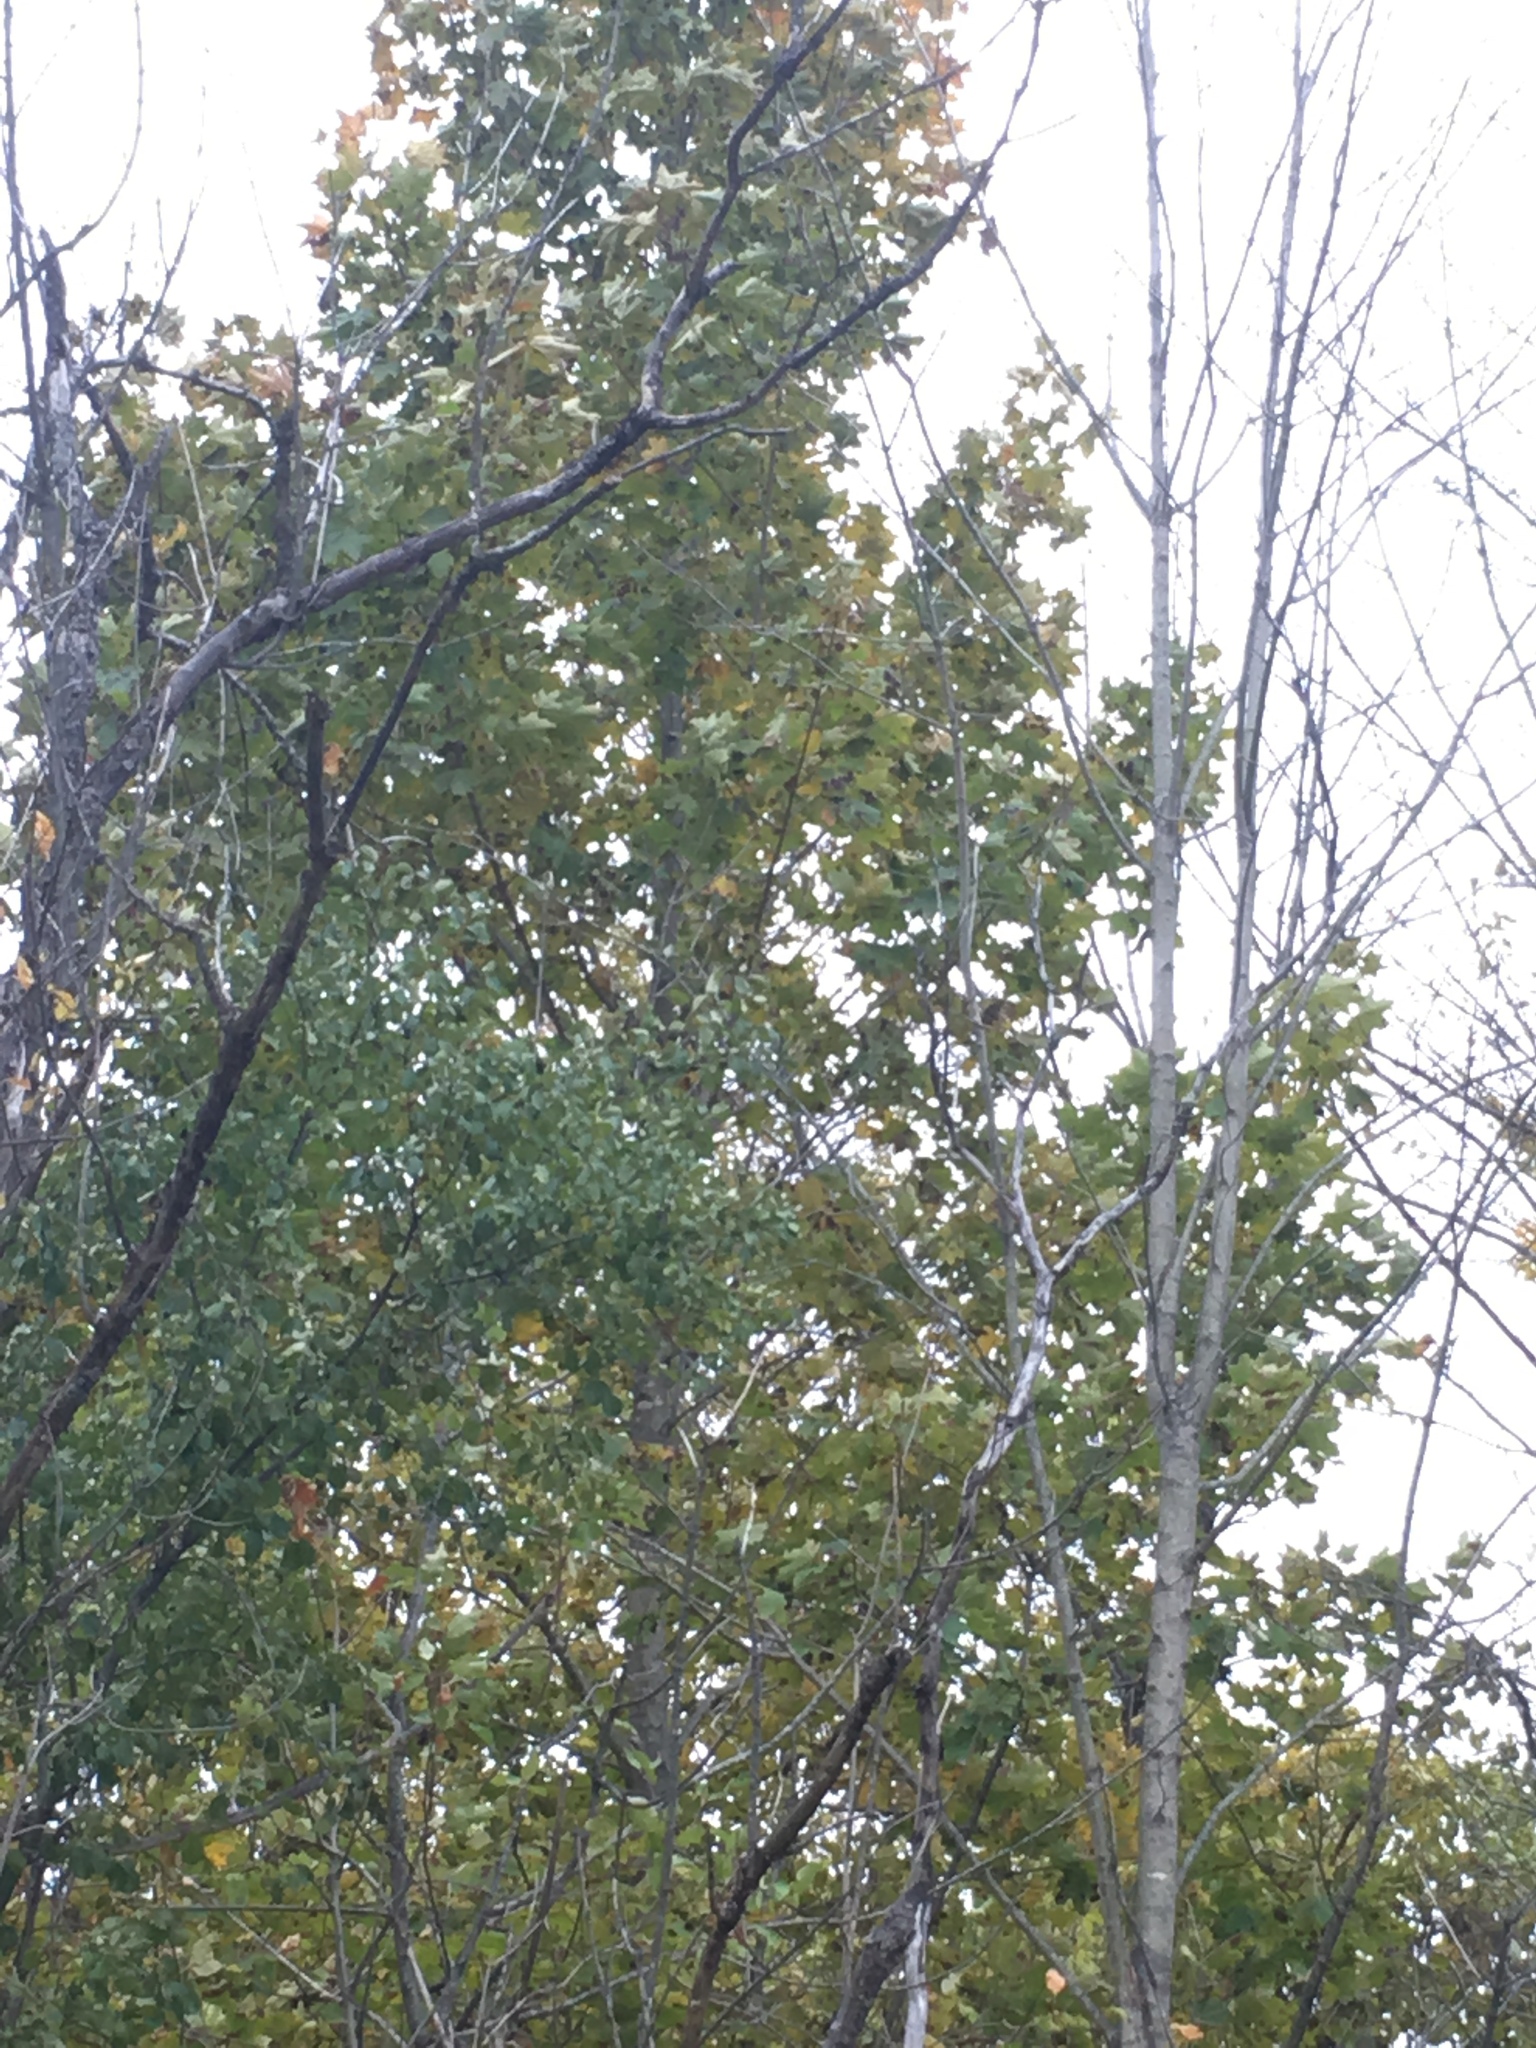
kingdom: Plantae
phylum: Tracheophyta
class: Magnoliopsida
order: Sapindales
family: Sapindaceae
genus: Acer
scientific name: Acer platanoides
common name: Norway maple
